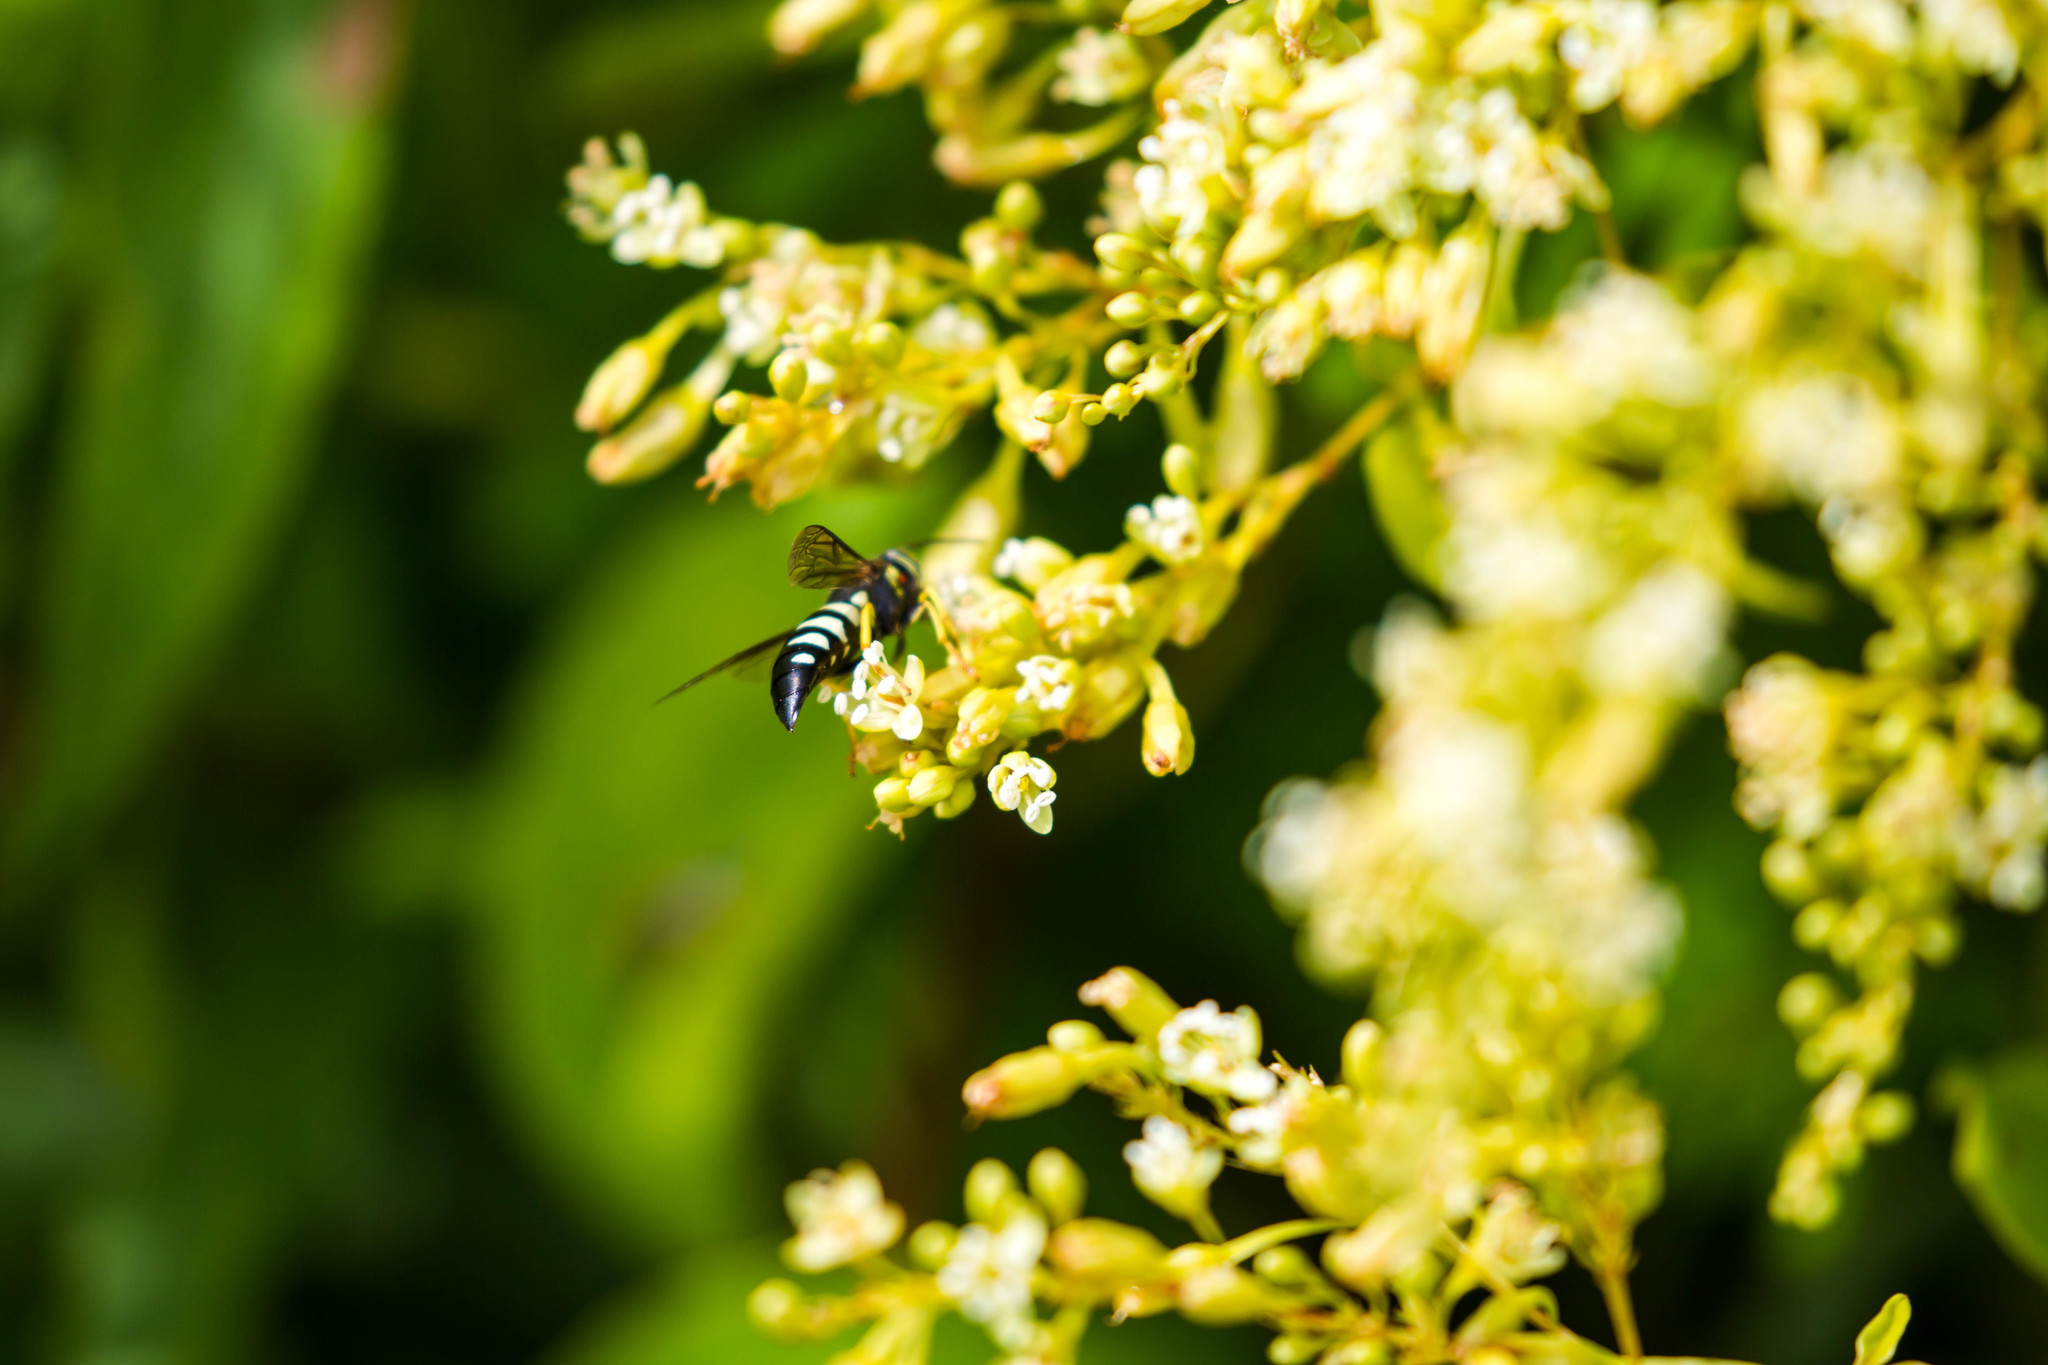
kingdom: Animalia
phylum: Arthropoda
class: Insecta
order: Hymenoptera
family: Crabronidae
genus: Bicyrtes
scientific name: Bicyrtes quadrifasciatus
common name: Four-banded stink bug hunter wasp
